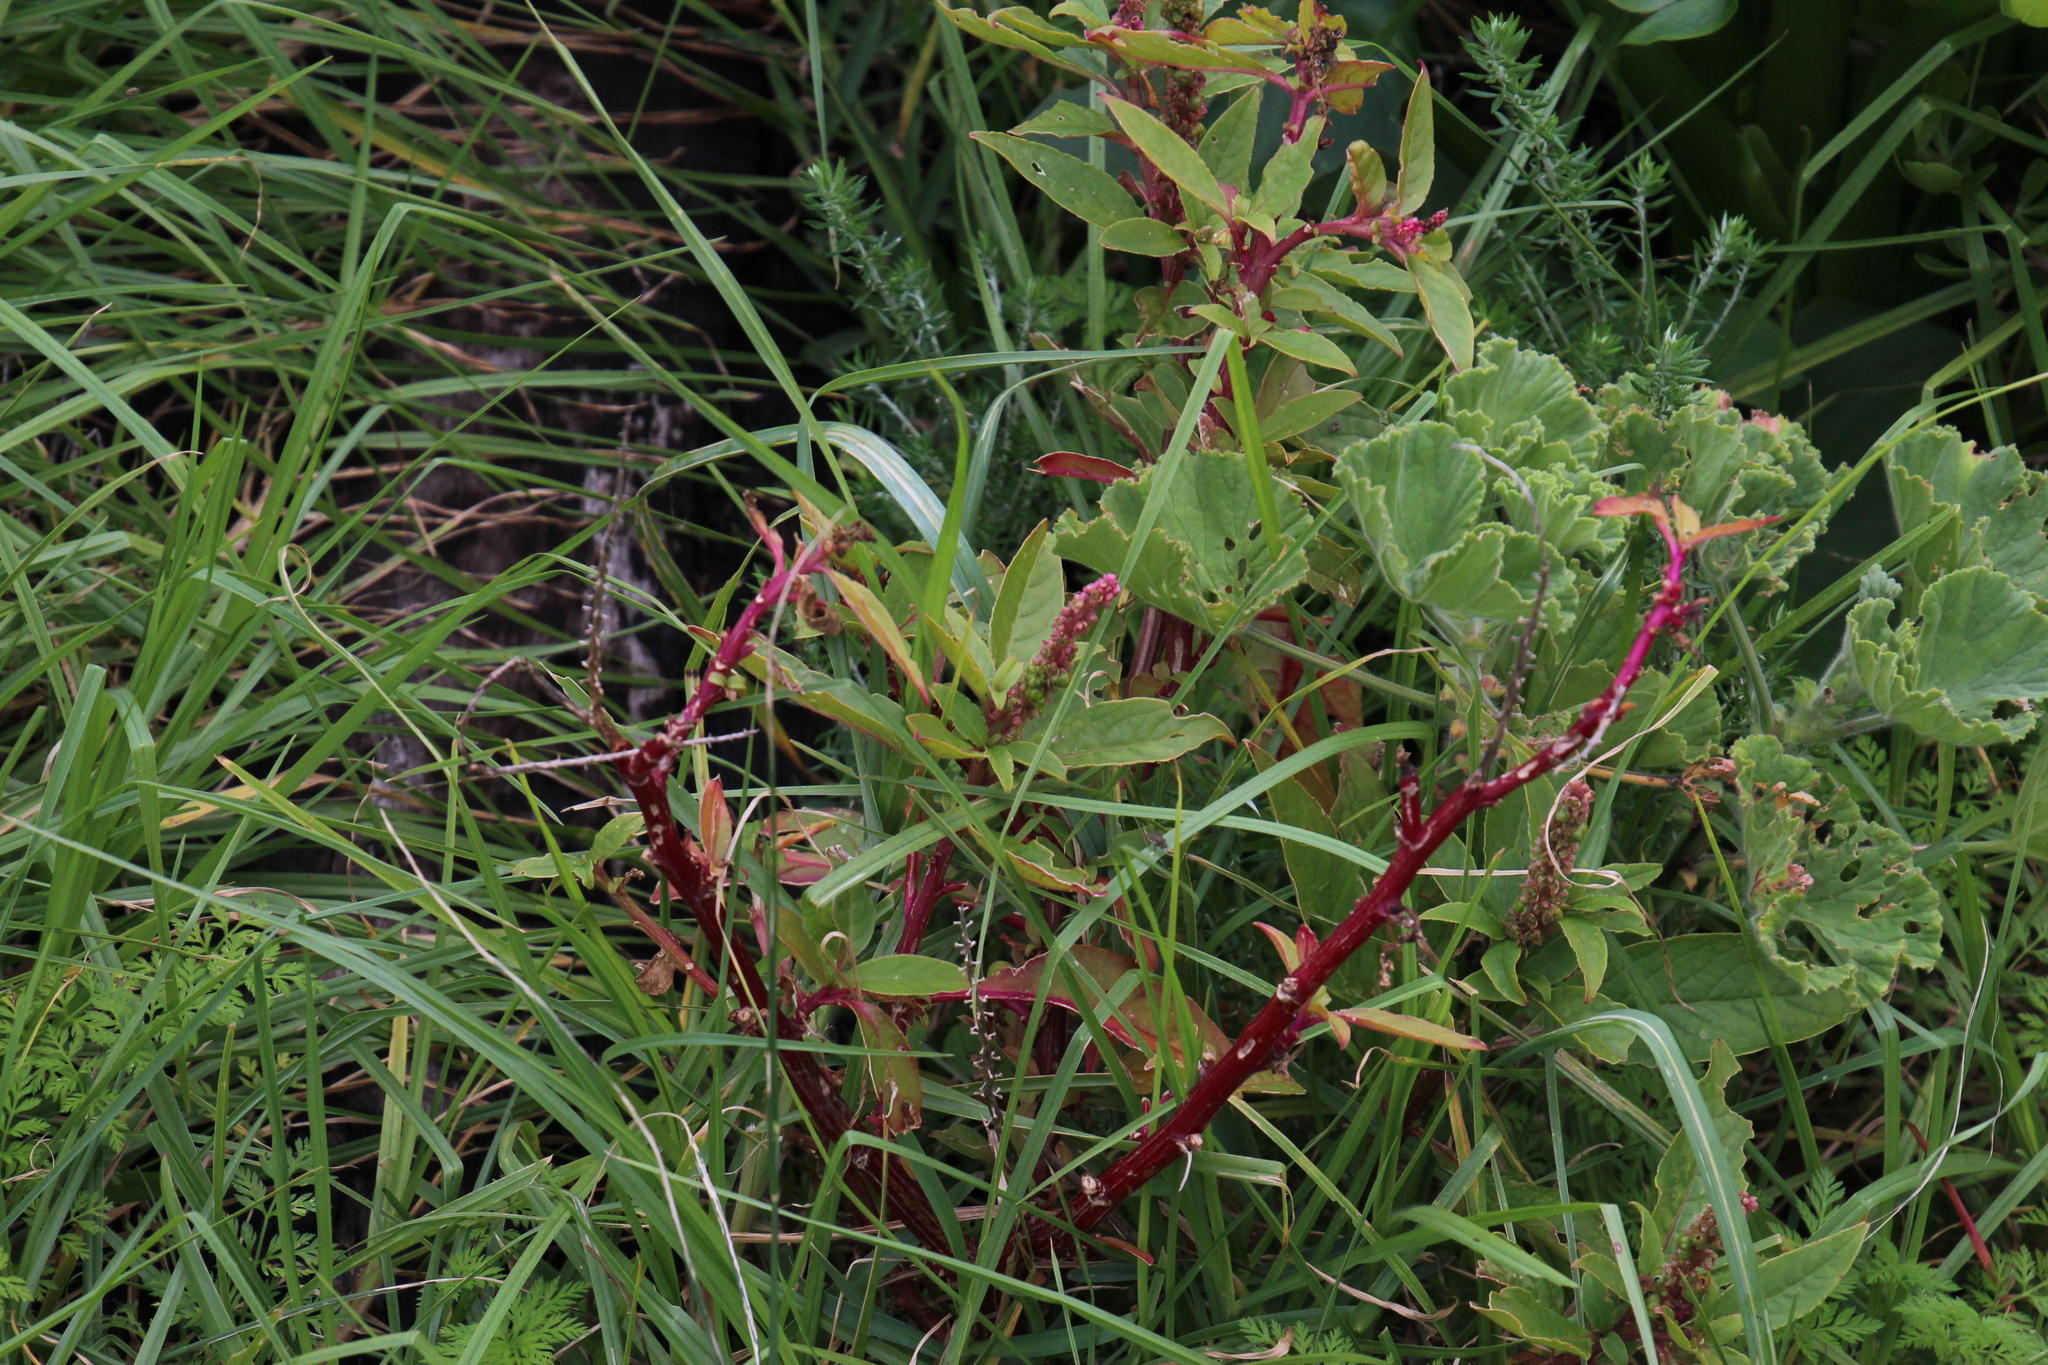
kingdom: Plantae
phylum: Tracheophyta
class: Magnoliopsida
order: Caryophyllales
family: Phytolaccaceae
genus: Phytolacca
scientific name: Phytolacca icosandra
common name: Button pokeweed
